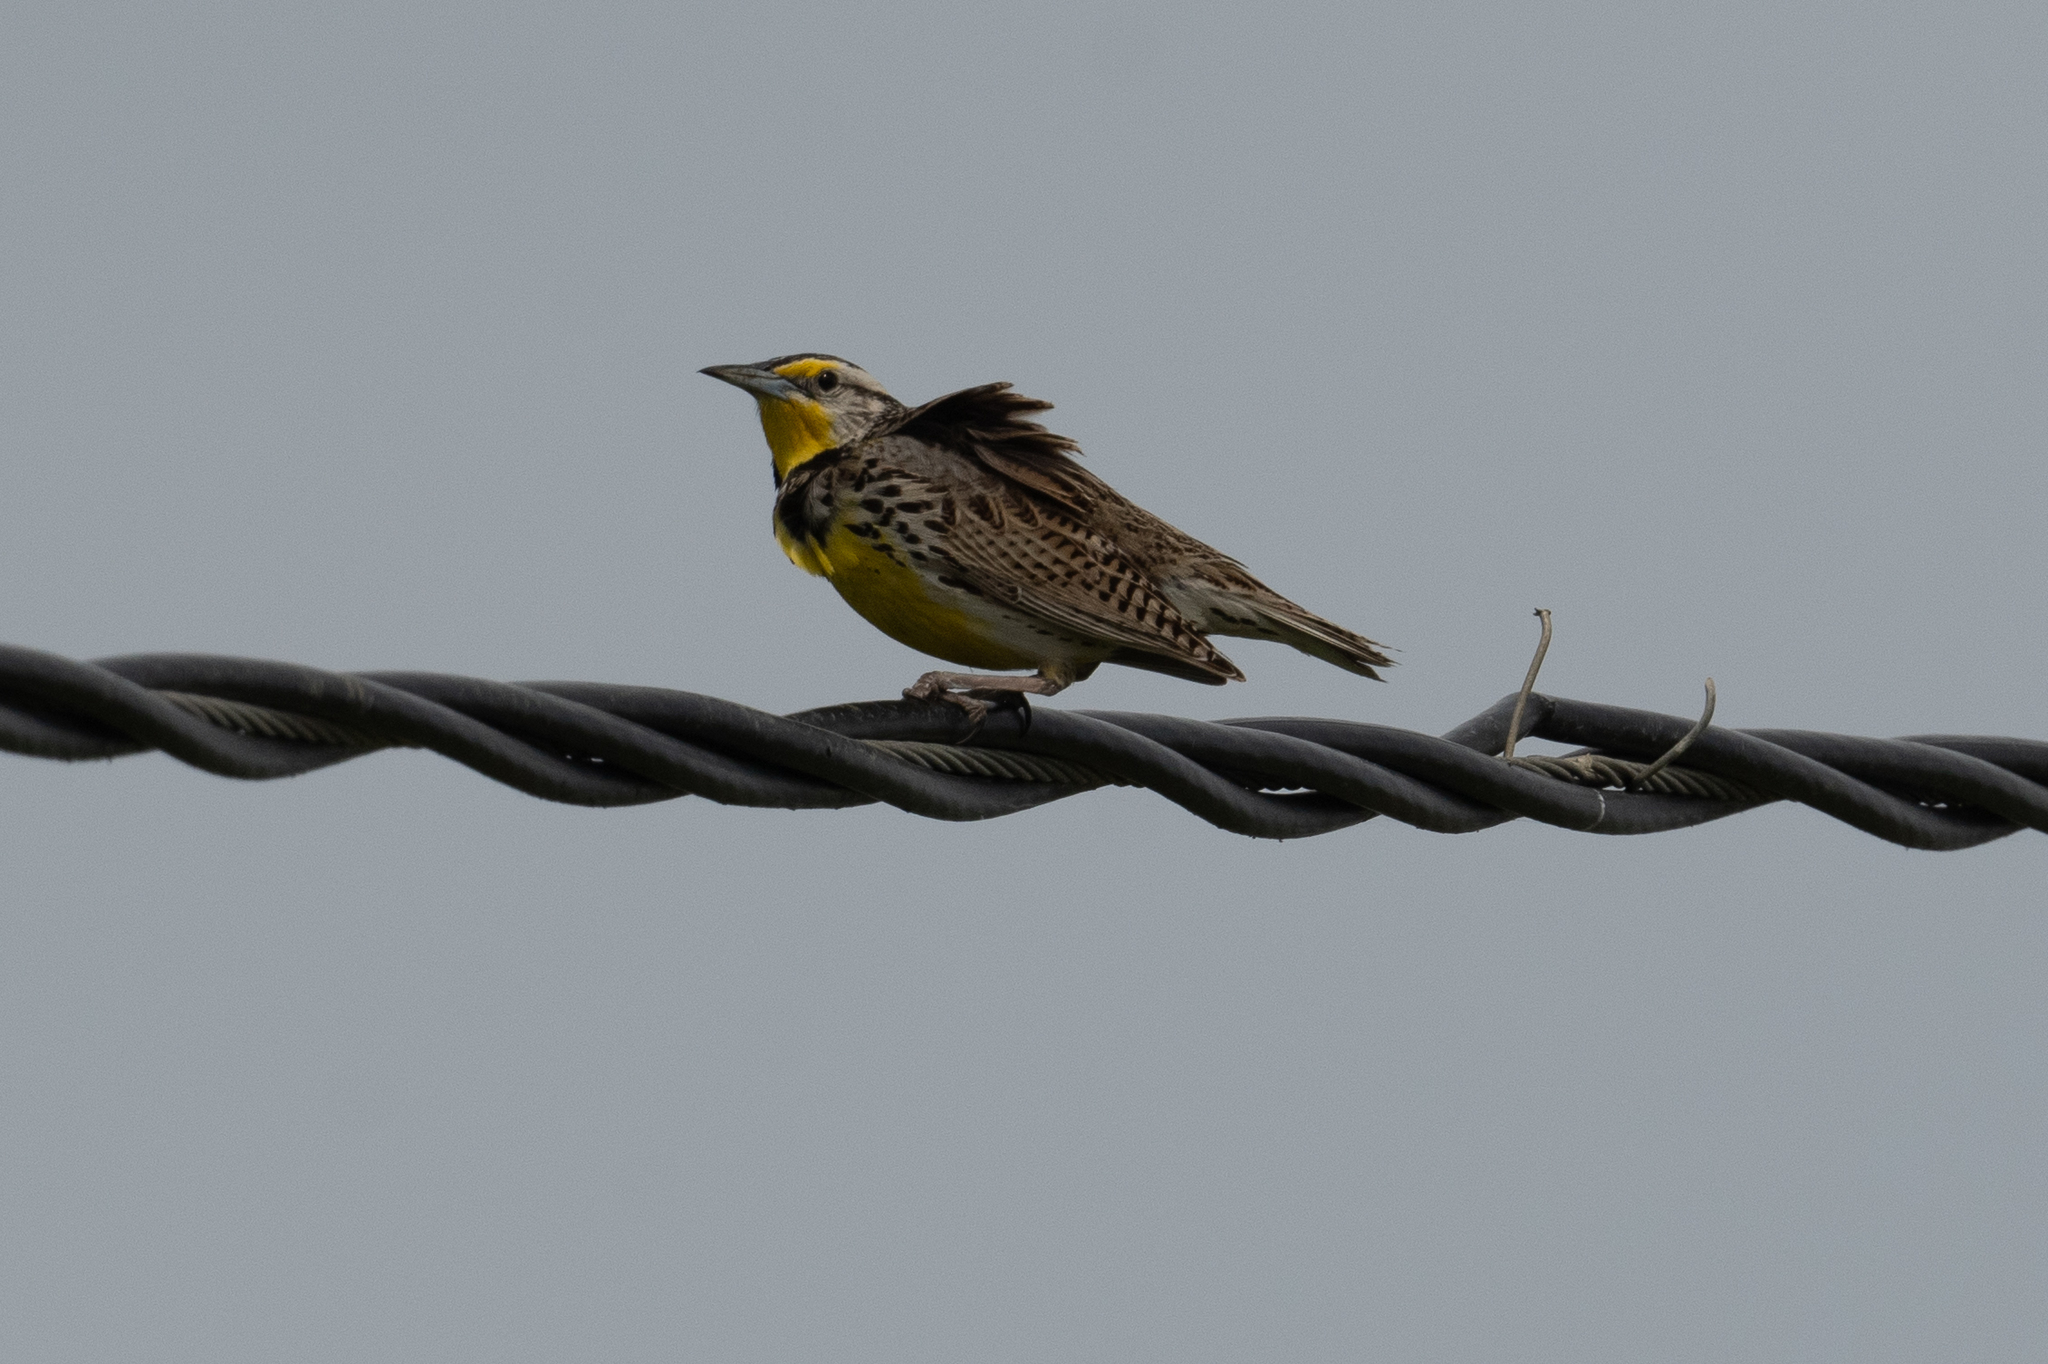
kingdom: Animalia
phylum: Chordata
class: Aves
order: Passeriformes
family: Icteridae
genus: Sturnella
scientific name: Sturnella neglecta
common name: Western meadowlark
